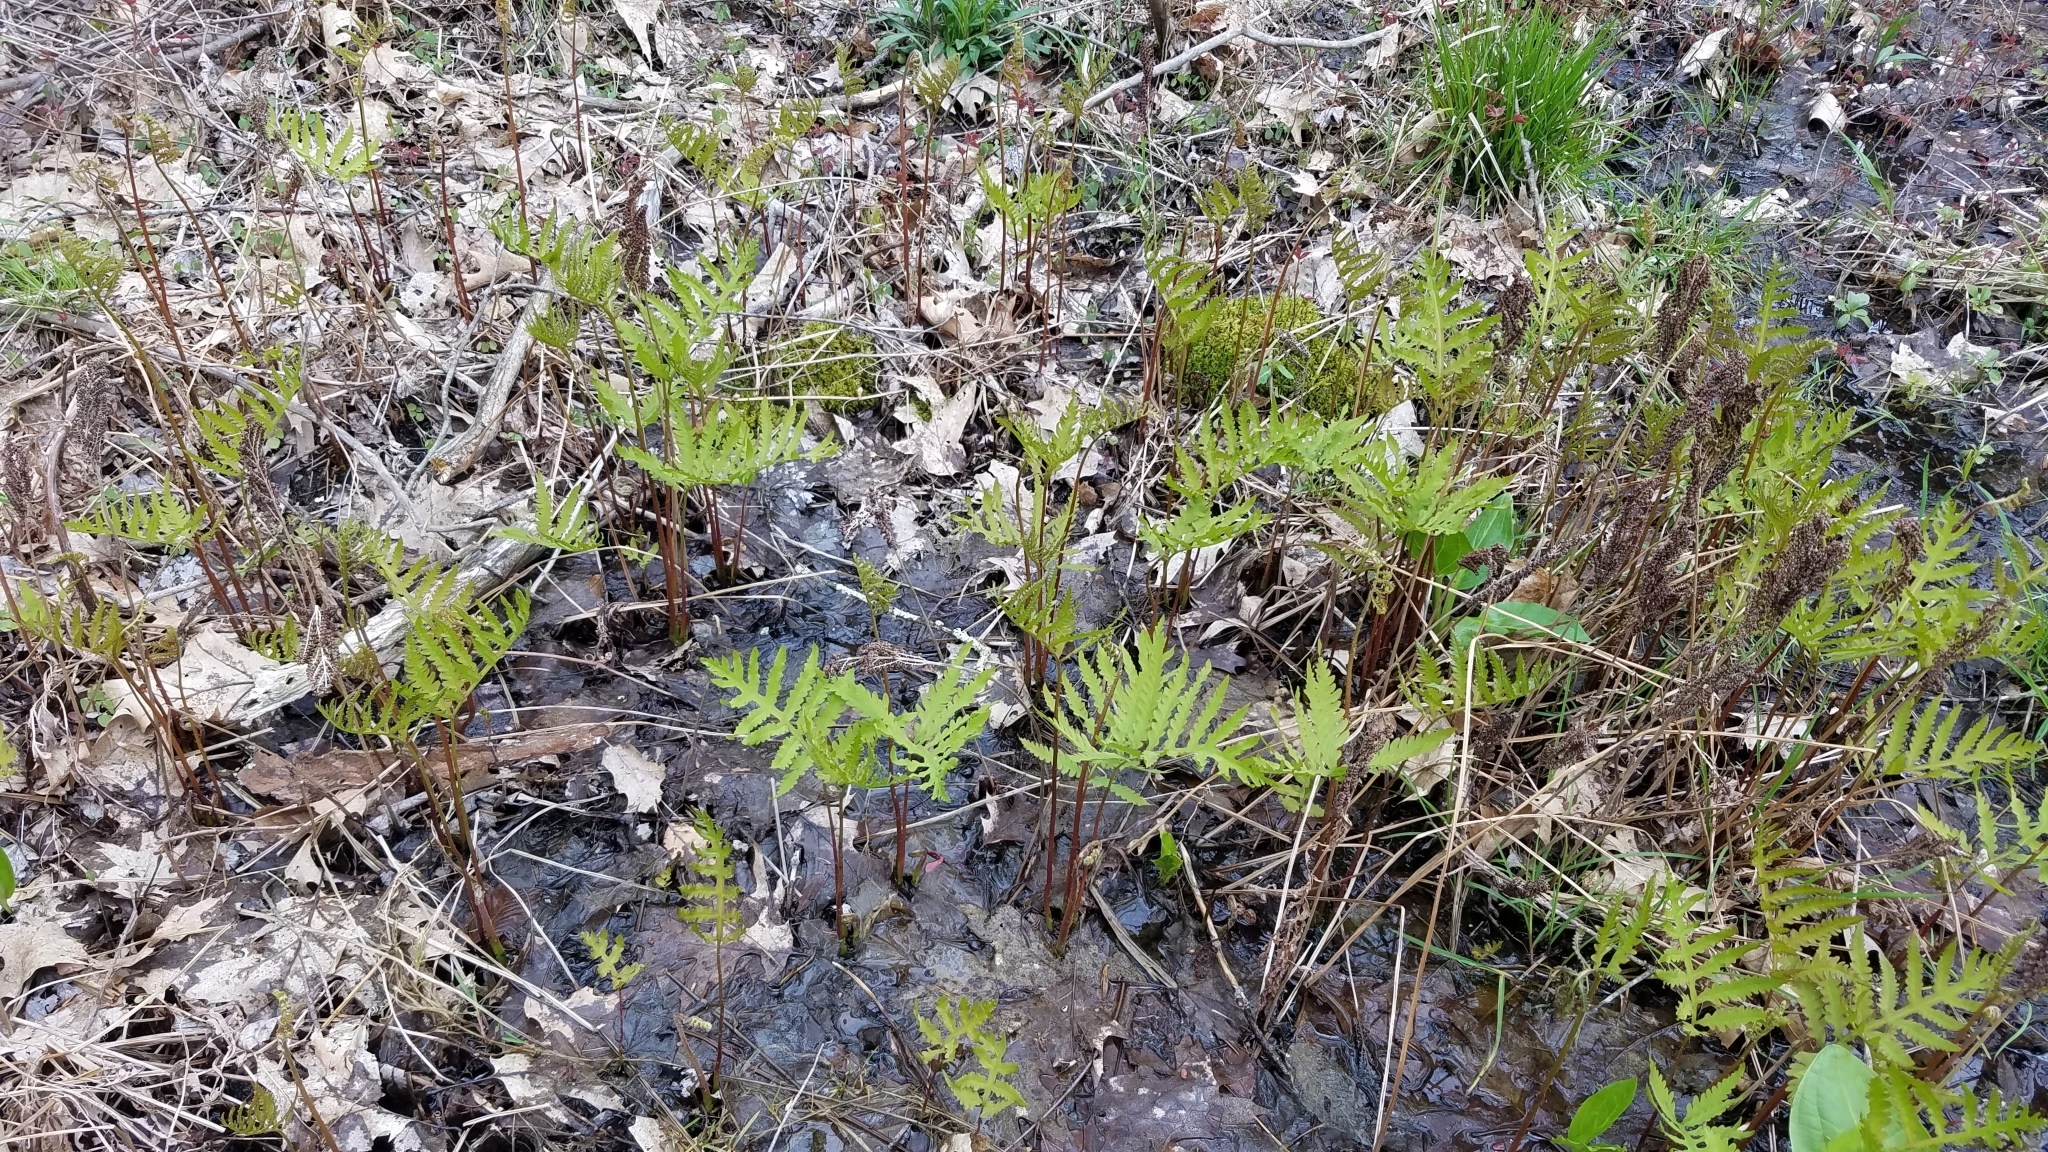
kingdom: Plantae
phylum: Tracheophyta
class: Polypodiopsida
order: Polypodiales
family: Onocleaceae
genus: Onoclea
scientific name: Onoclea sensibilis
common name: Sensitive fern
